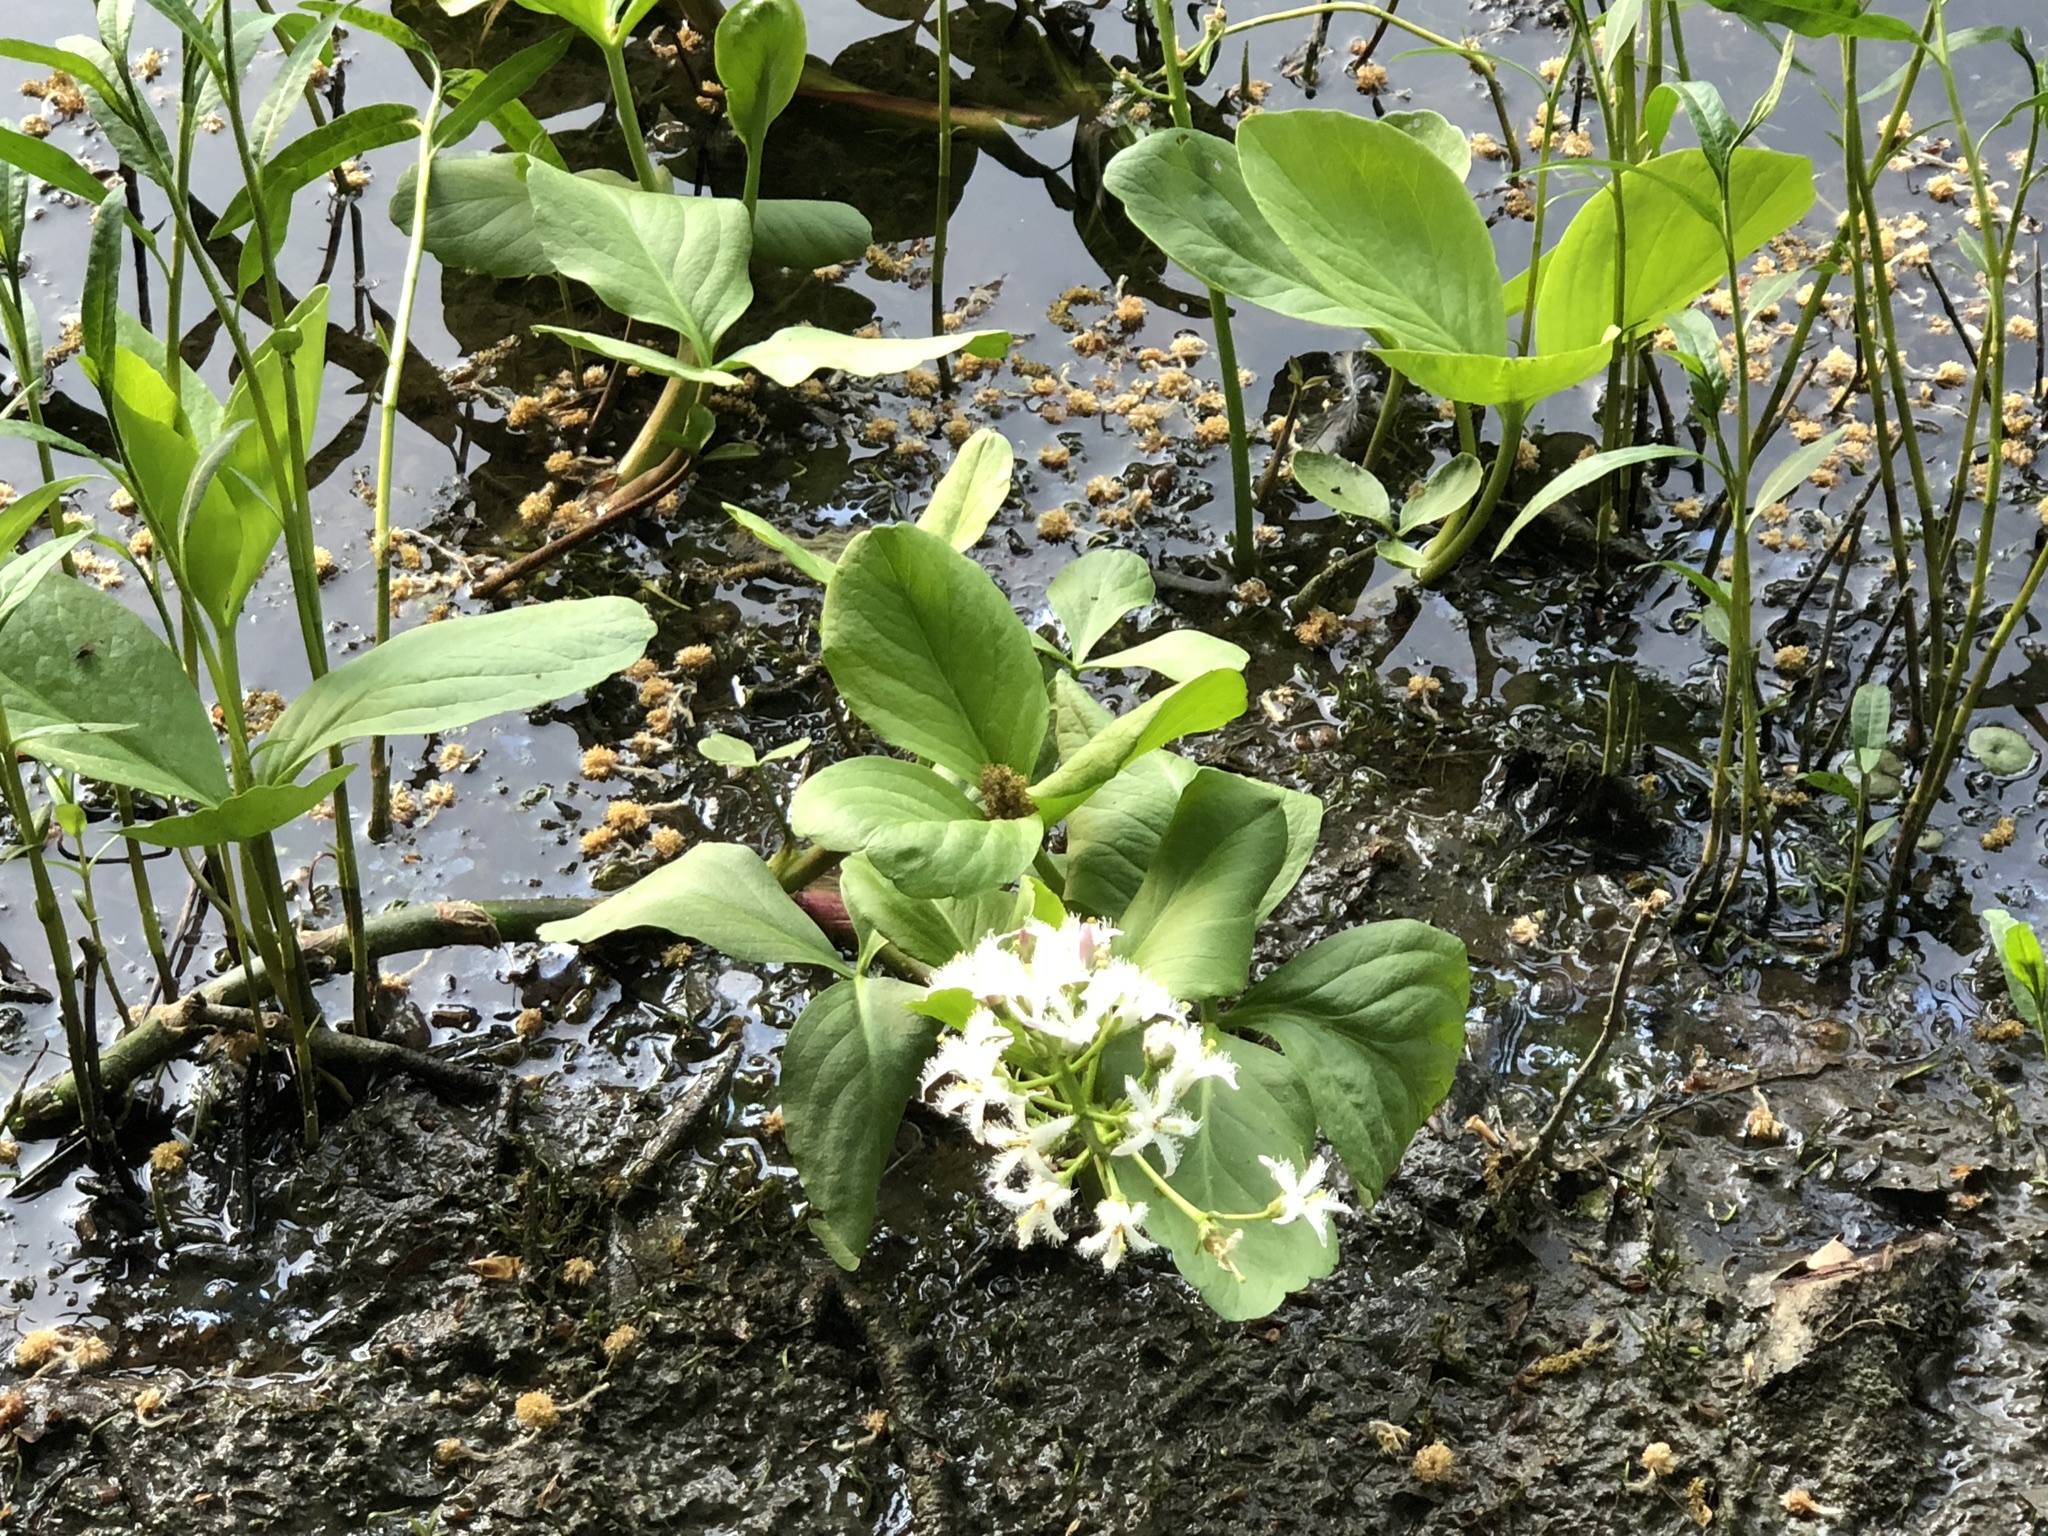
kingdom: Plantae
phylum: Tracheophyta
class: Magnoliopsida
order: Asterales
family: Menyanthaceae
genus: Menyanthes
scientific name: Menyanthes trifoliata
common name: Bogbean
